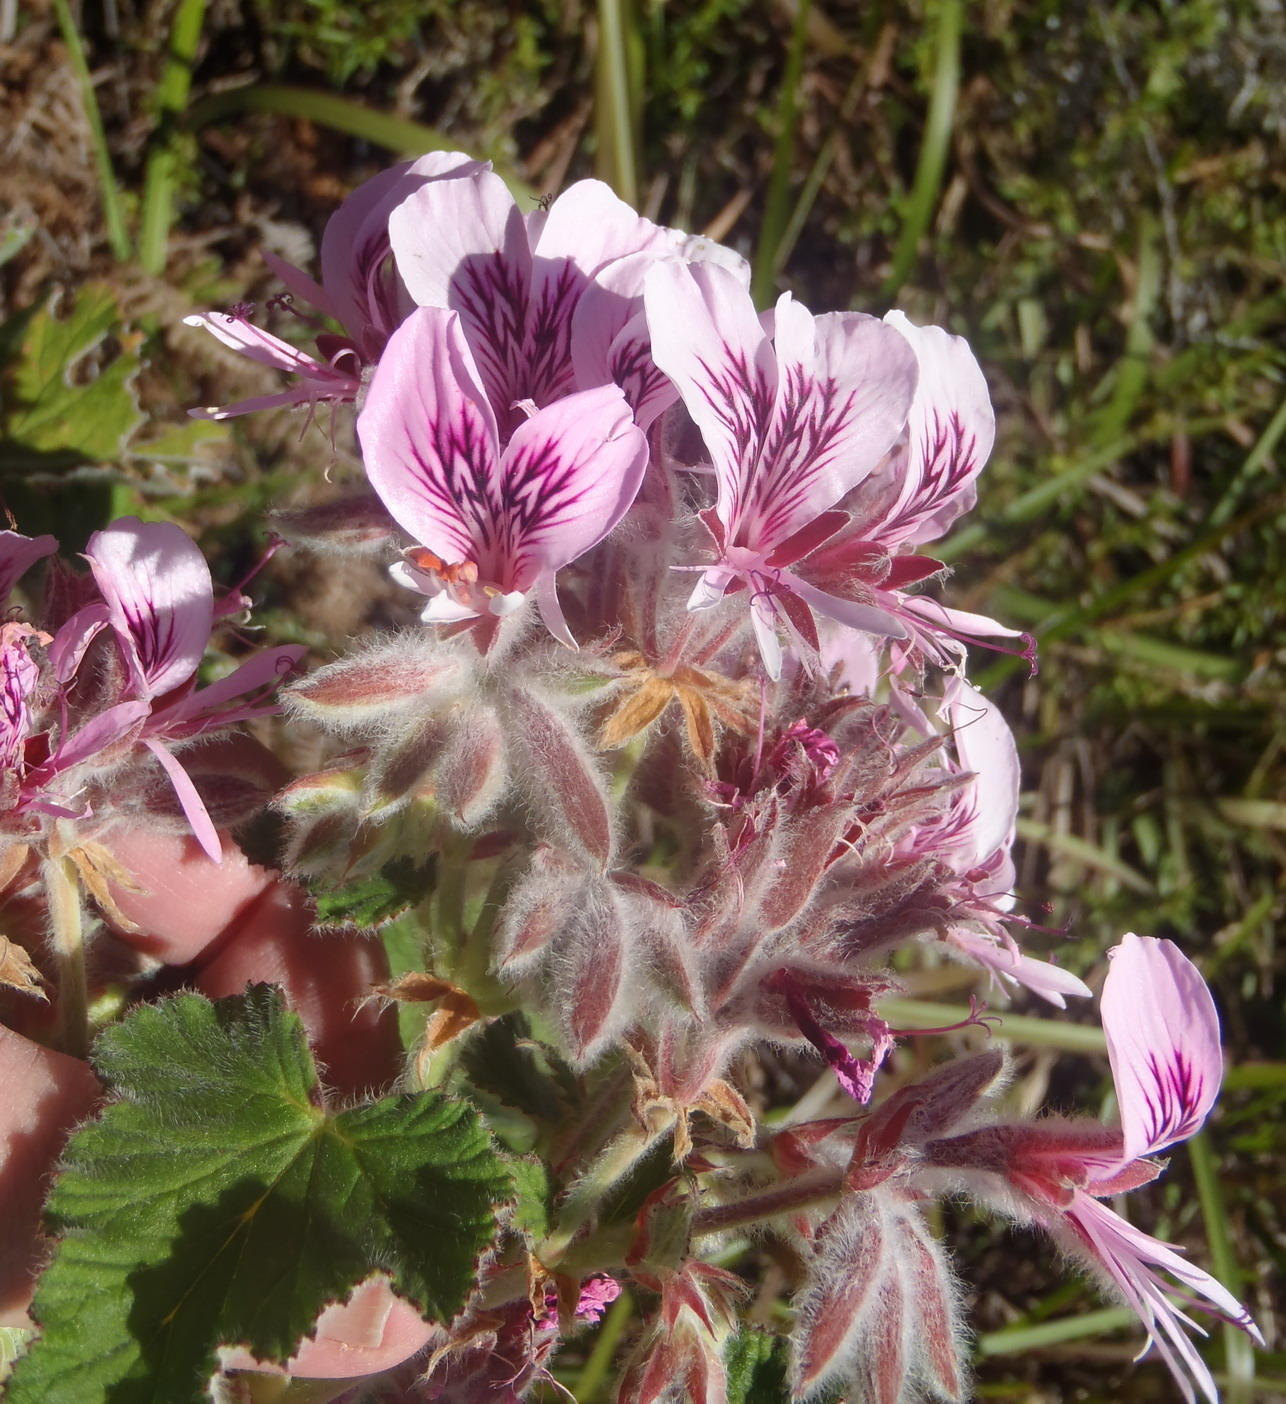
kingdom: Plantae
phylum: Tracheophyta
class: Magnoliopsida
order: Geraniales
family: Geraniaceae
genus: Pelargonium
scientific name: Pelargonium cordifolium
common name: Heart-leaf pelargonium
